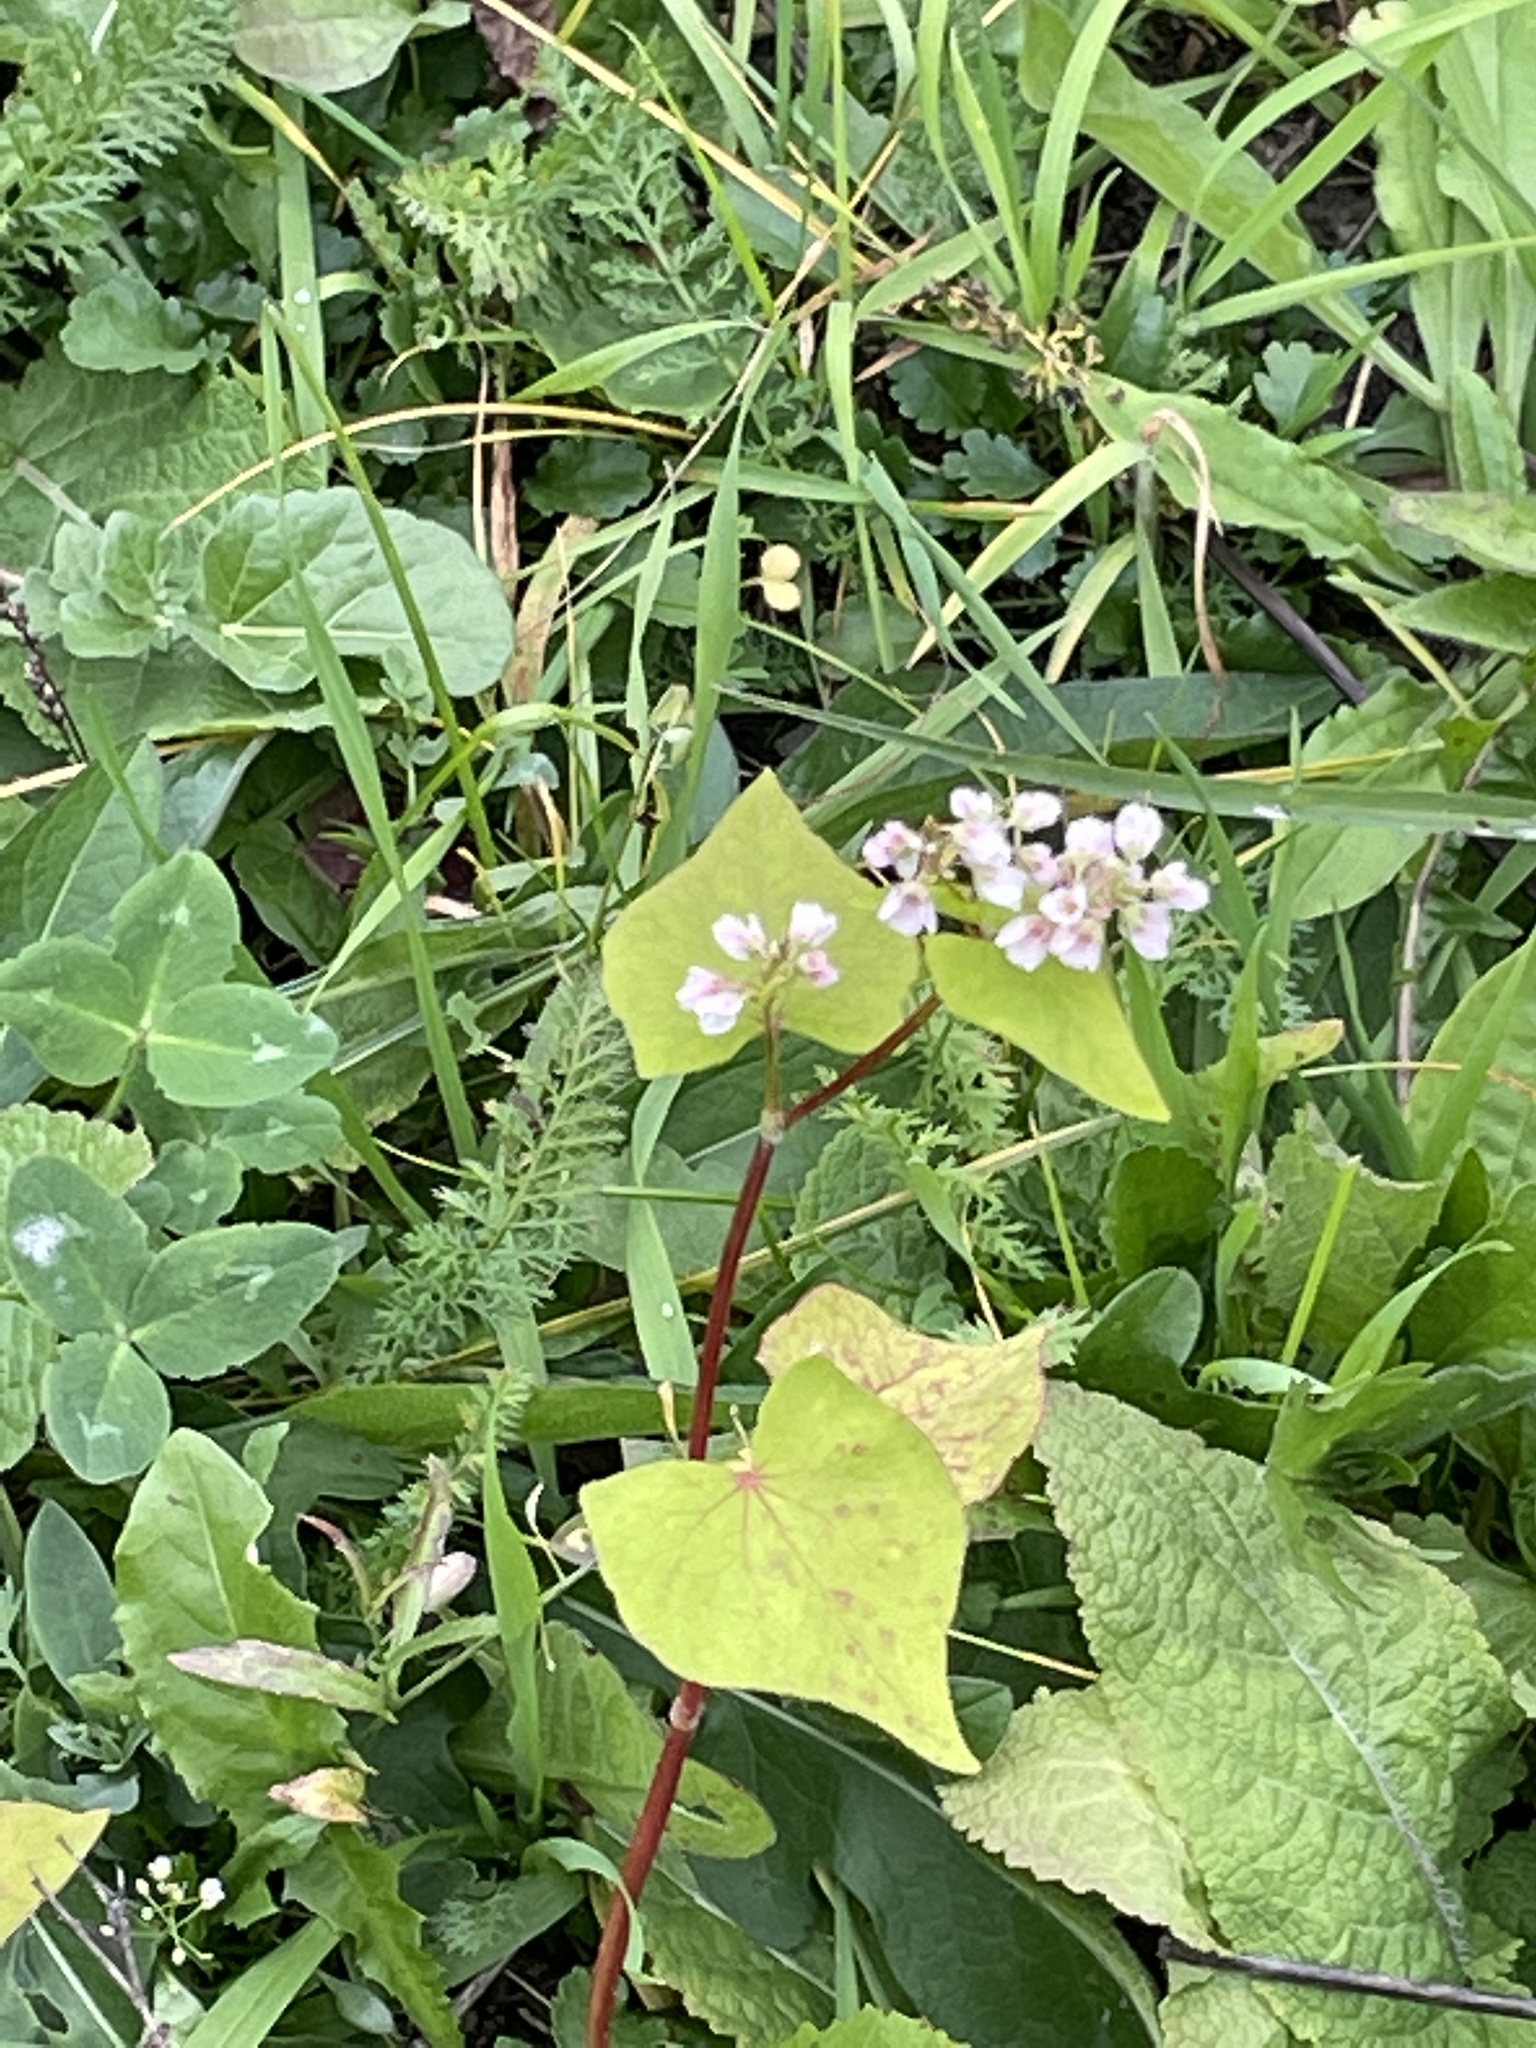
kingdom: Plantae
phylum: Tracheophyta
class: Magnoliopsida
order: Caryophyllales
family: Polygonaceae
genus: Fagopyrum
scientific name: Fagopyrum esculentum
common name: Buckwheat
